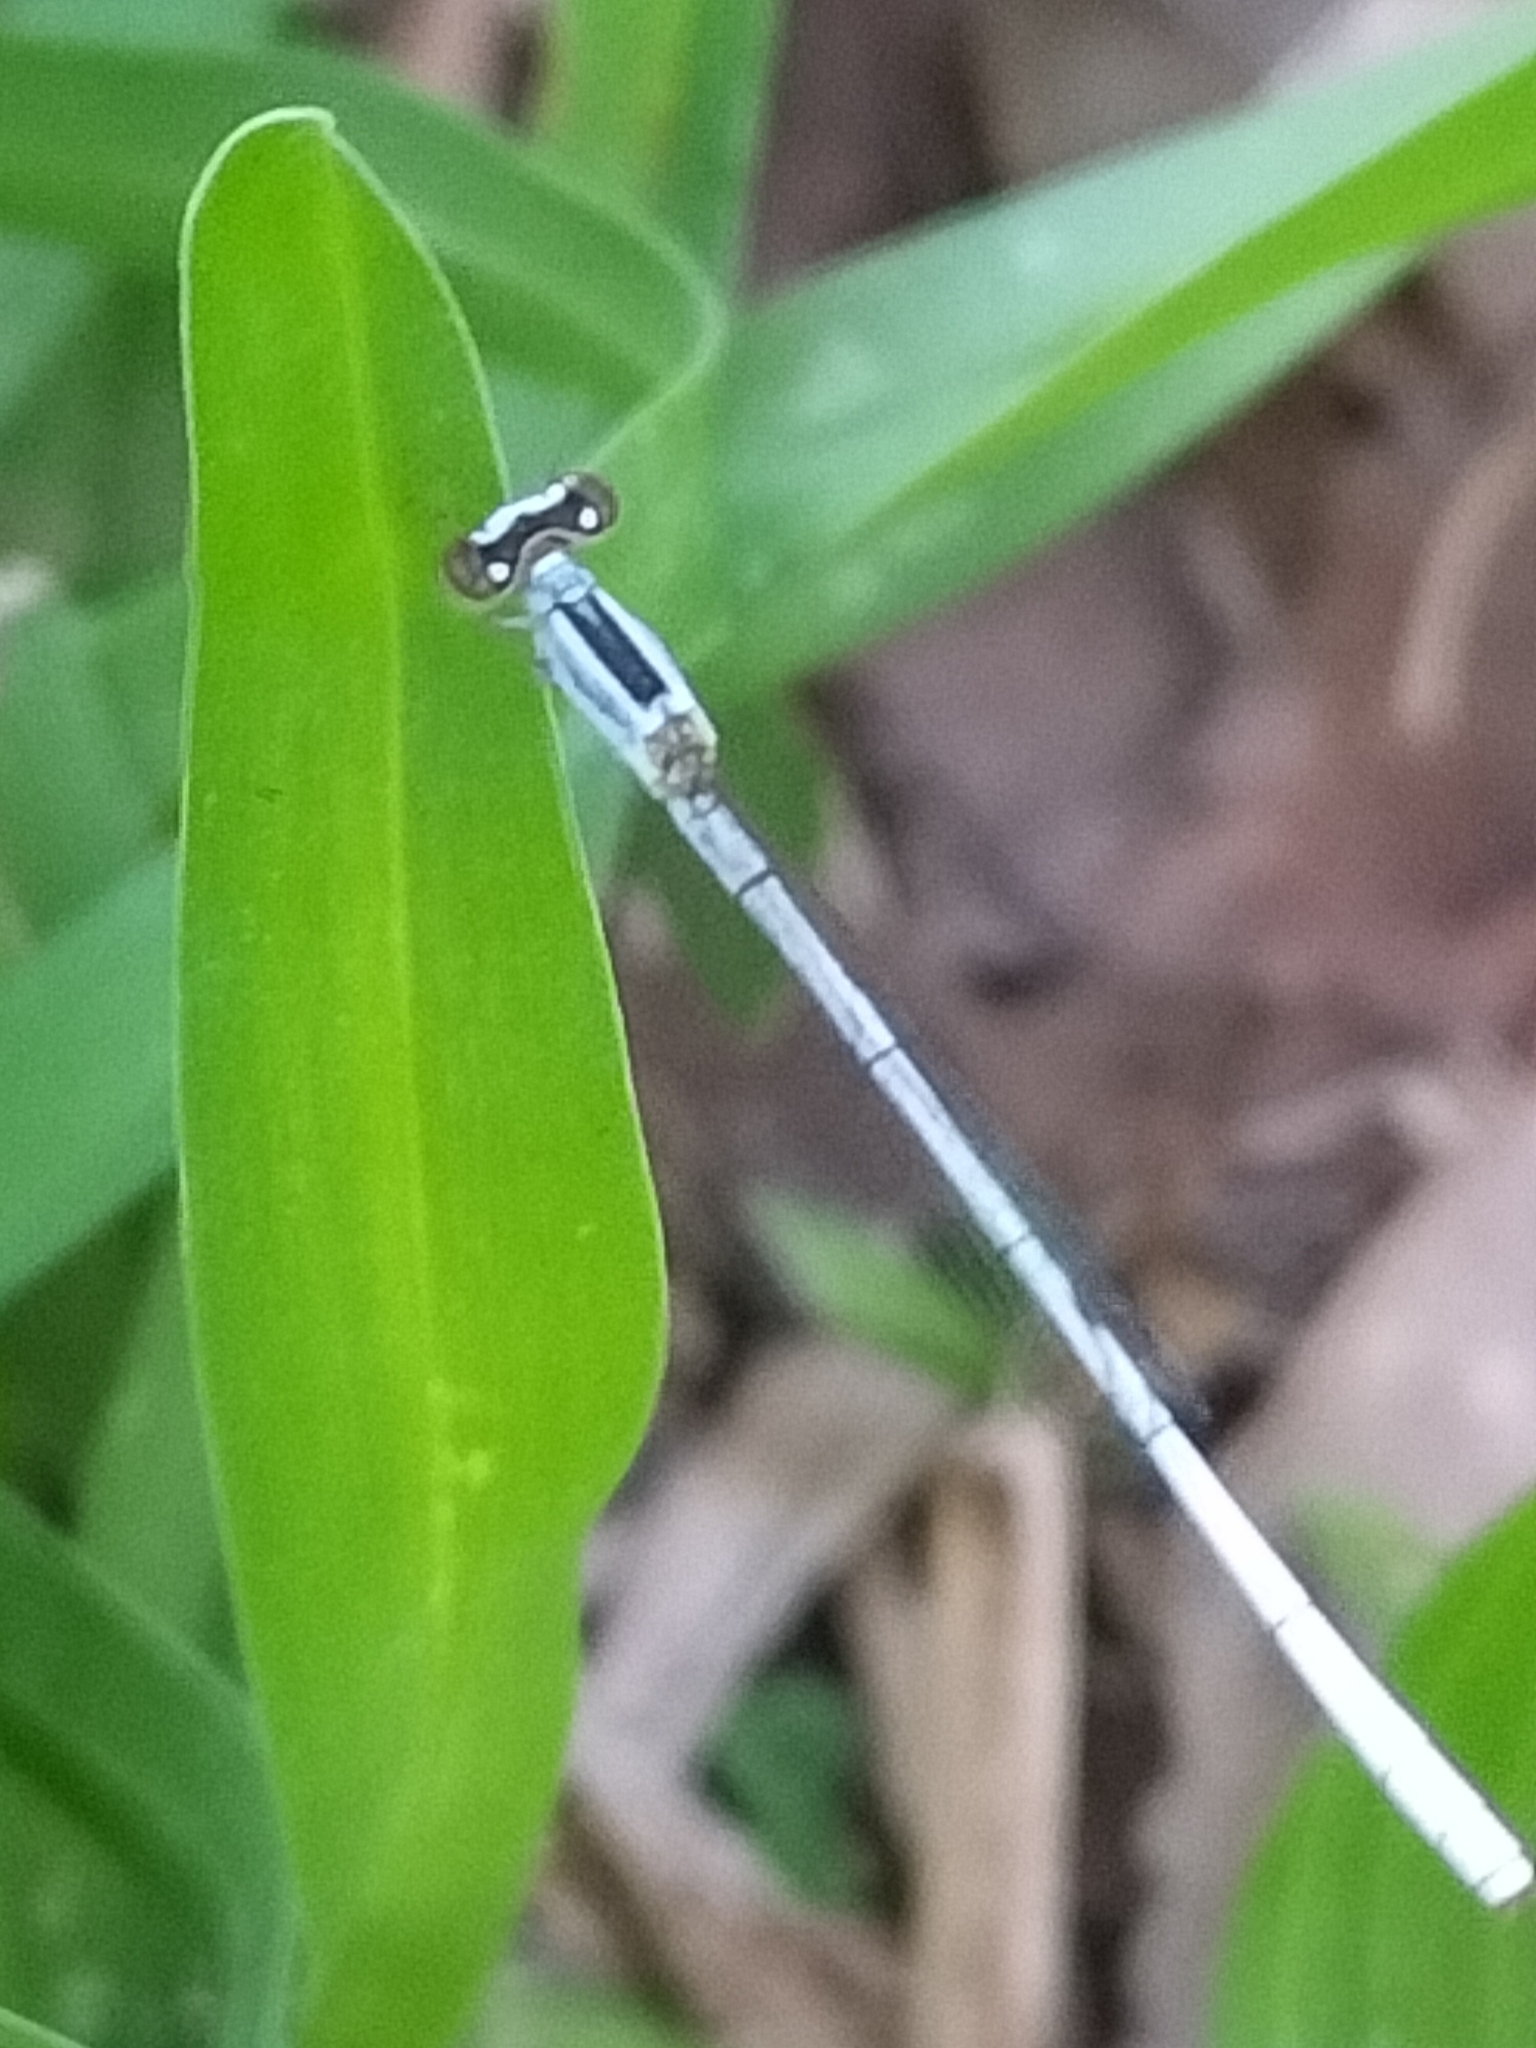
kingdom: Animalia
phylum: Arthropoda
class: Insecta
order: Odonata
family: Coenagrionidae
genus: Agriocnemis
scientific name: Agriocnemis argentea
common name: Silver wisp
